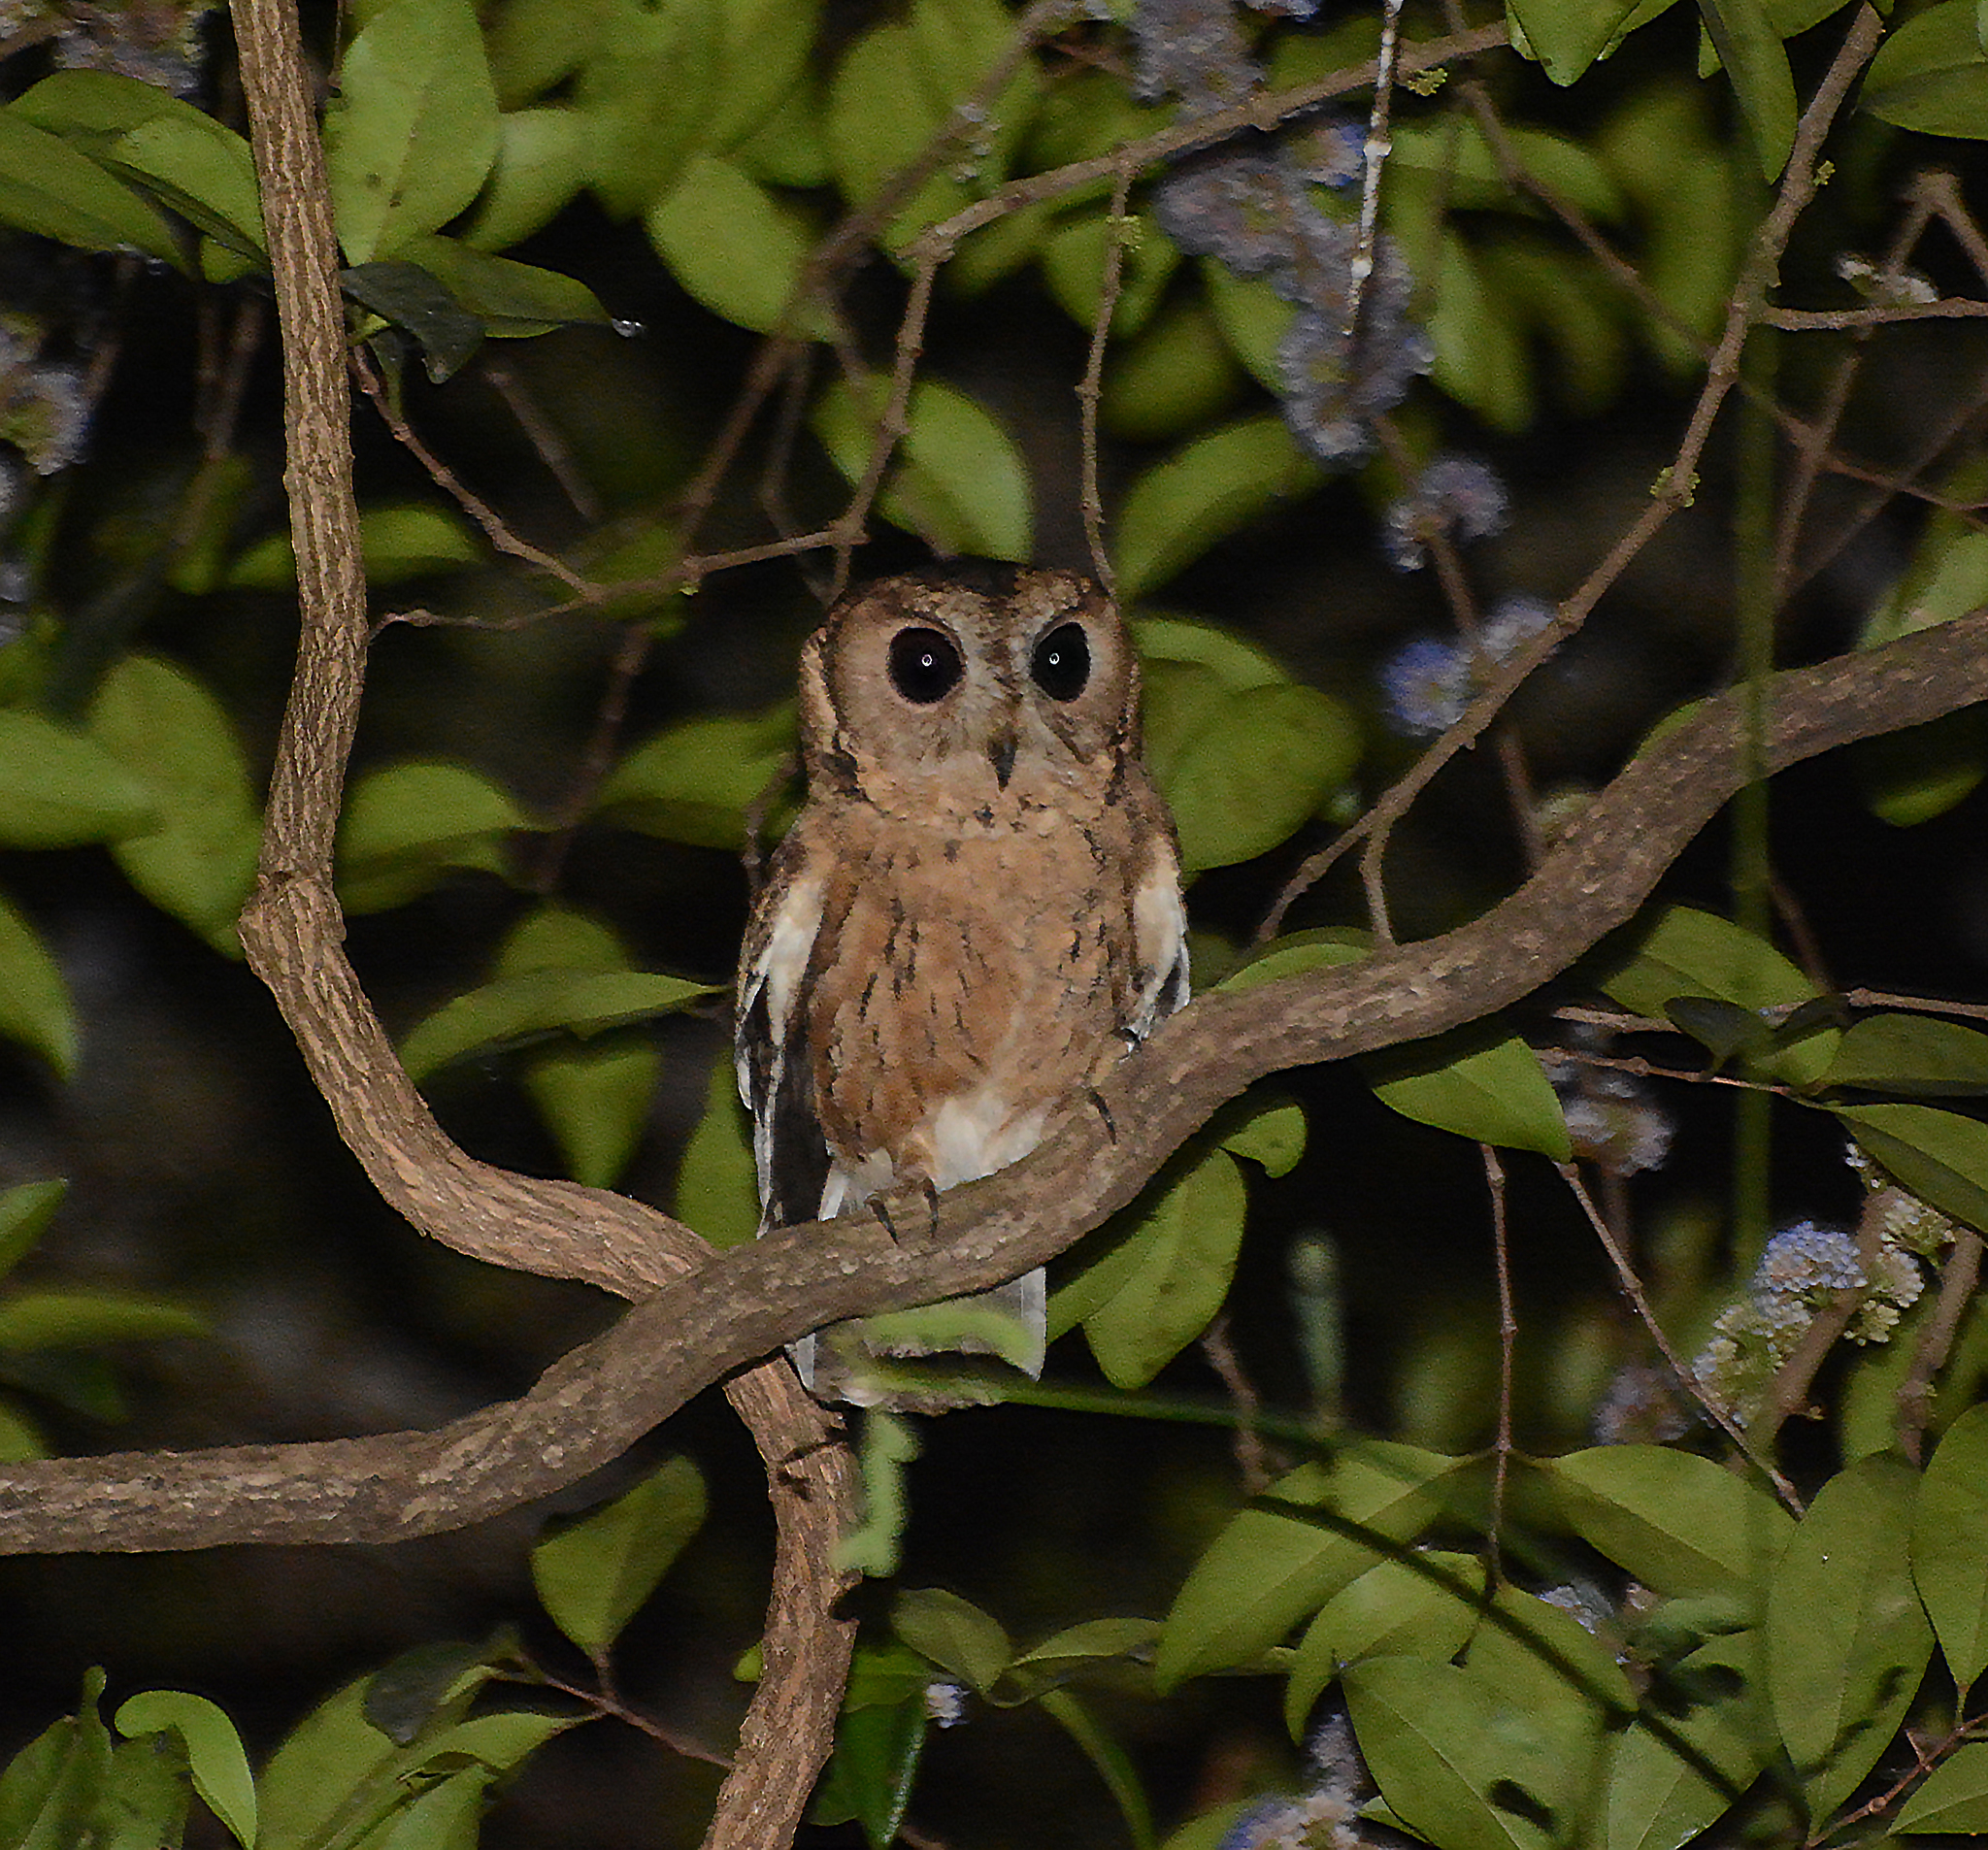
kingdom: Animalia
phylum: Chordata
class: Aves
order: Strigiformes
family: Strigidae
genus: Otus
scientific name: Otus bakkamoena
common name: Indian scops owl
